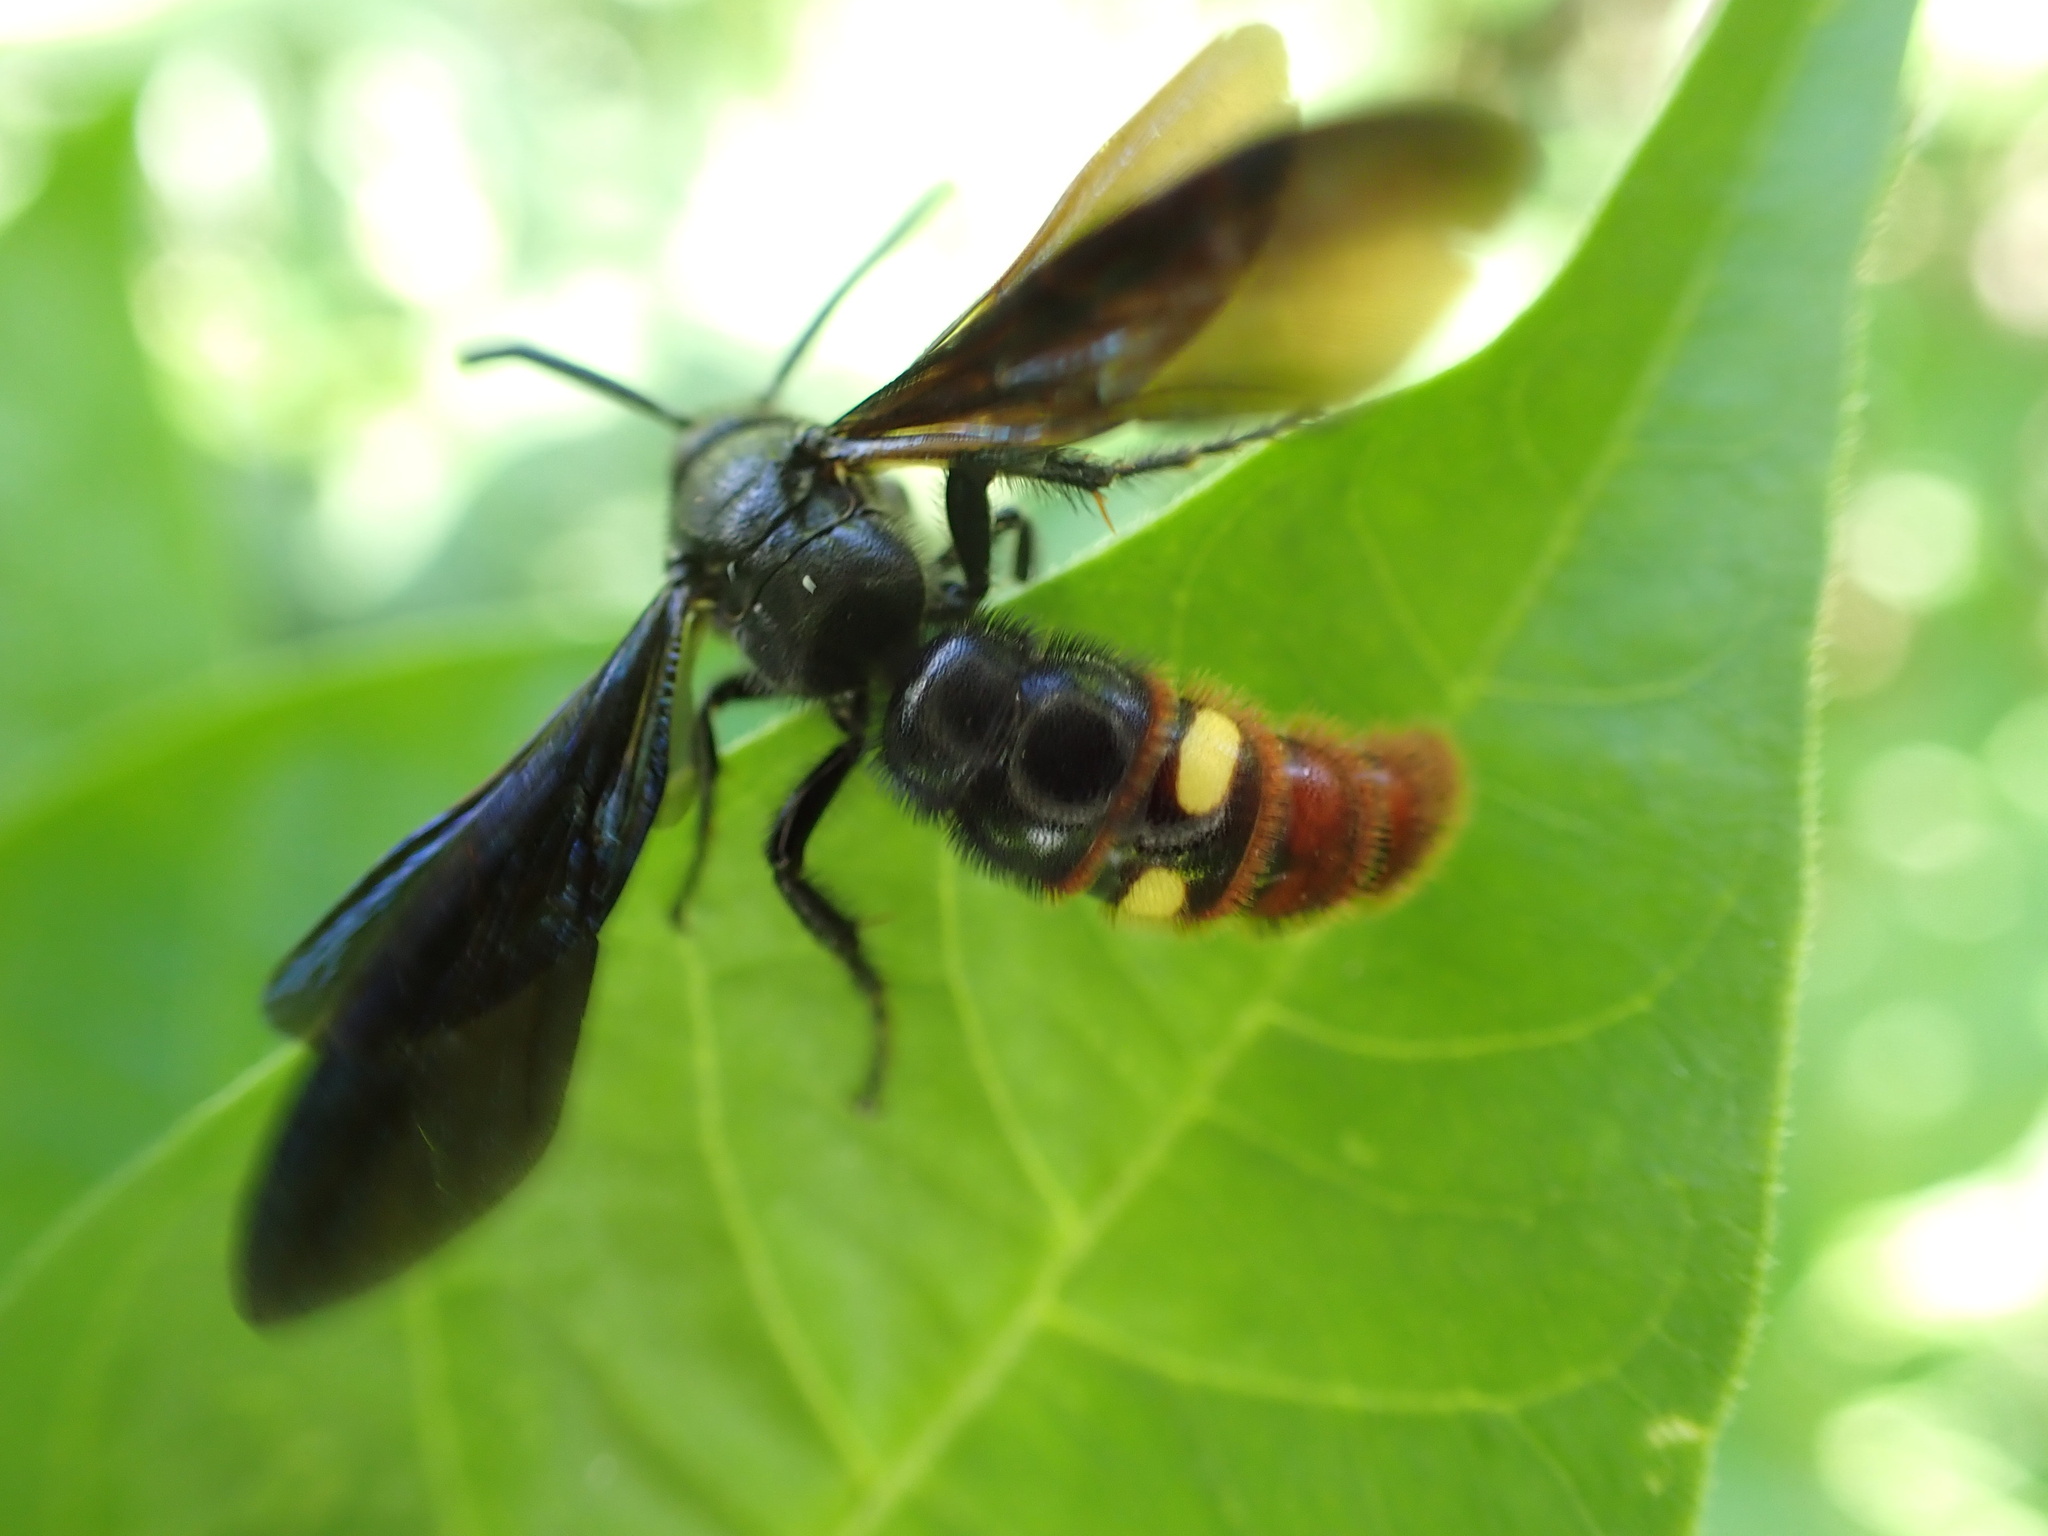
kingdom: Animalia
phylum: Arthropoda
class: Insecta
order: Hymenoptera
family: Scoliidae
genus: Scolia
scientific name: Scolia dubia
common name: Blue-winged scoliid wasp
